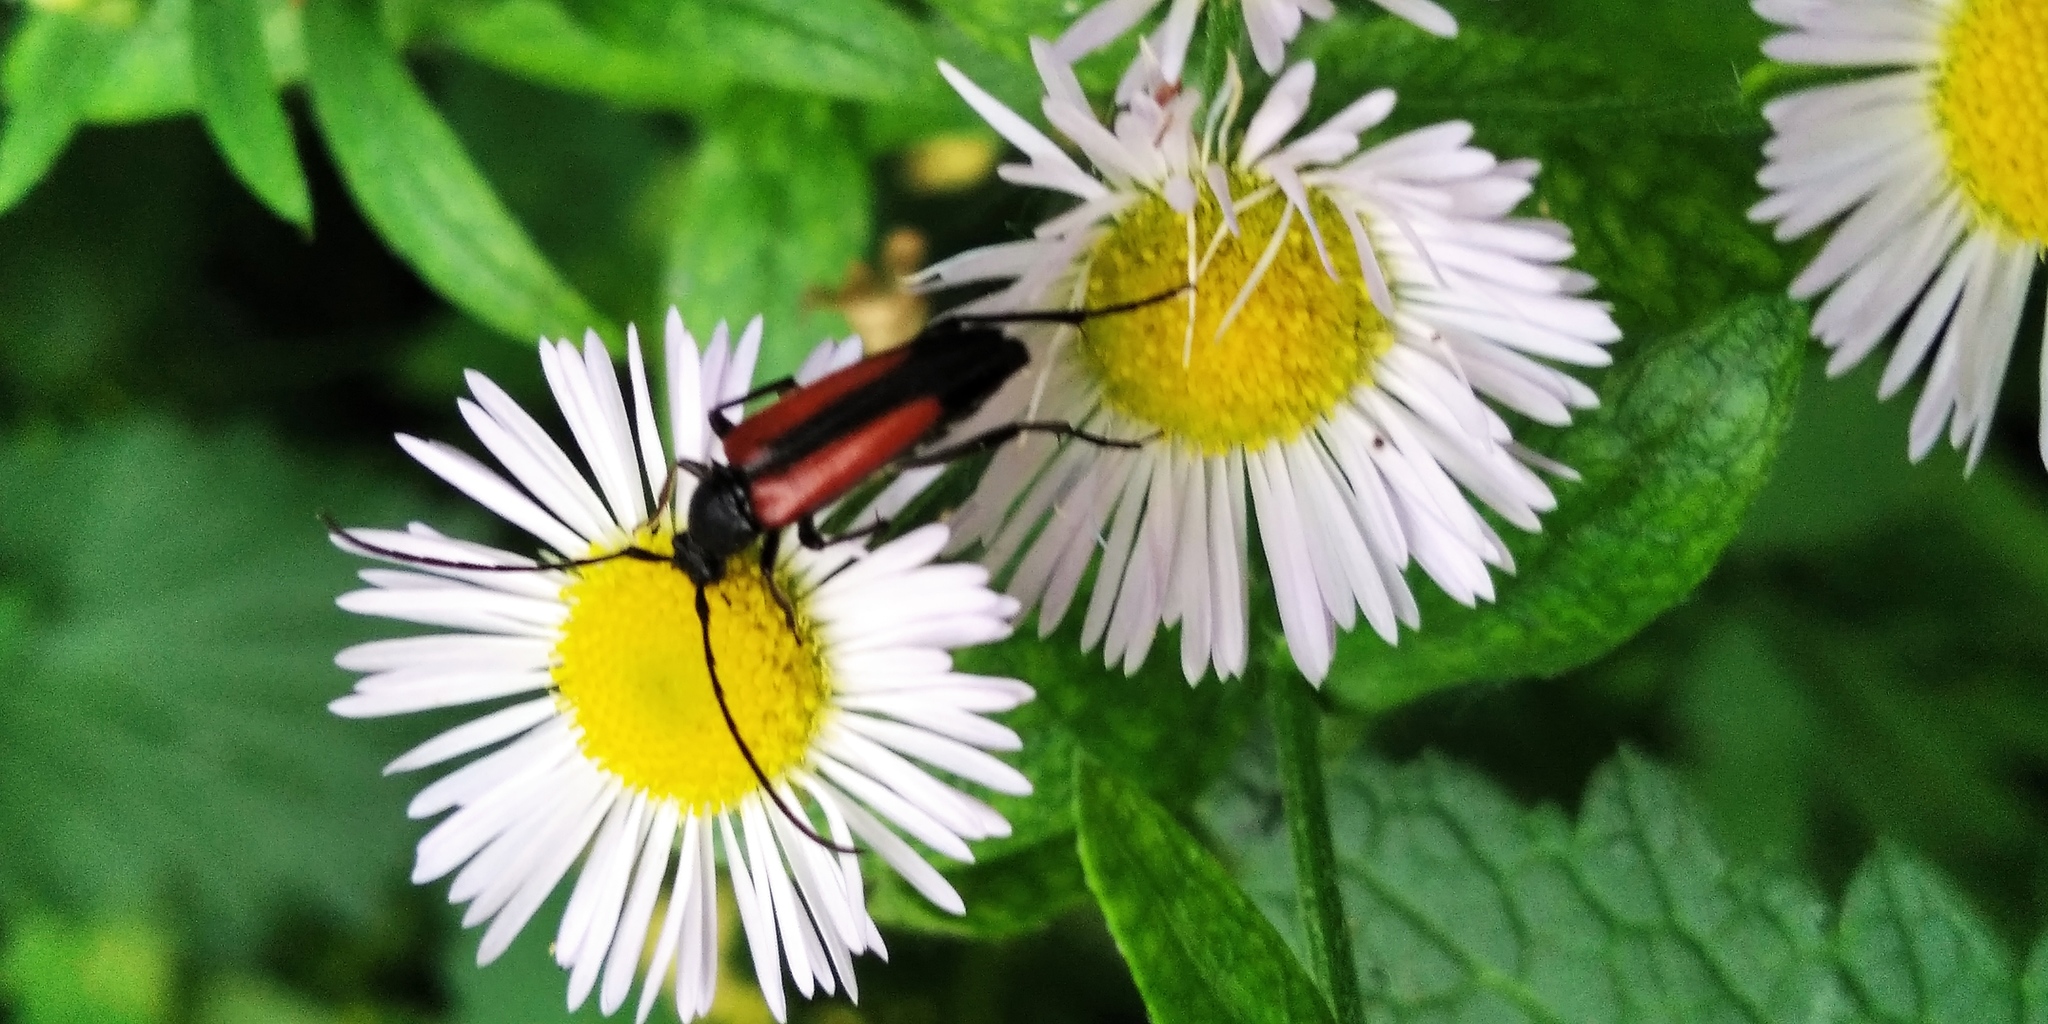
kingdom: Animalia
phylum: Arthropoda
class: Insecta
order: Coleoptera
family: Cerambycidae
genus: Stenurella
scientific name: Stenurella melanura
